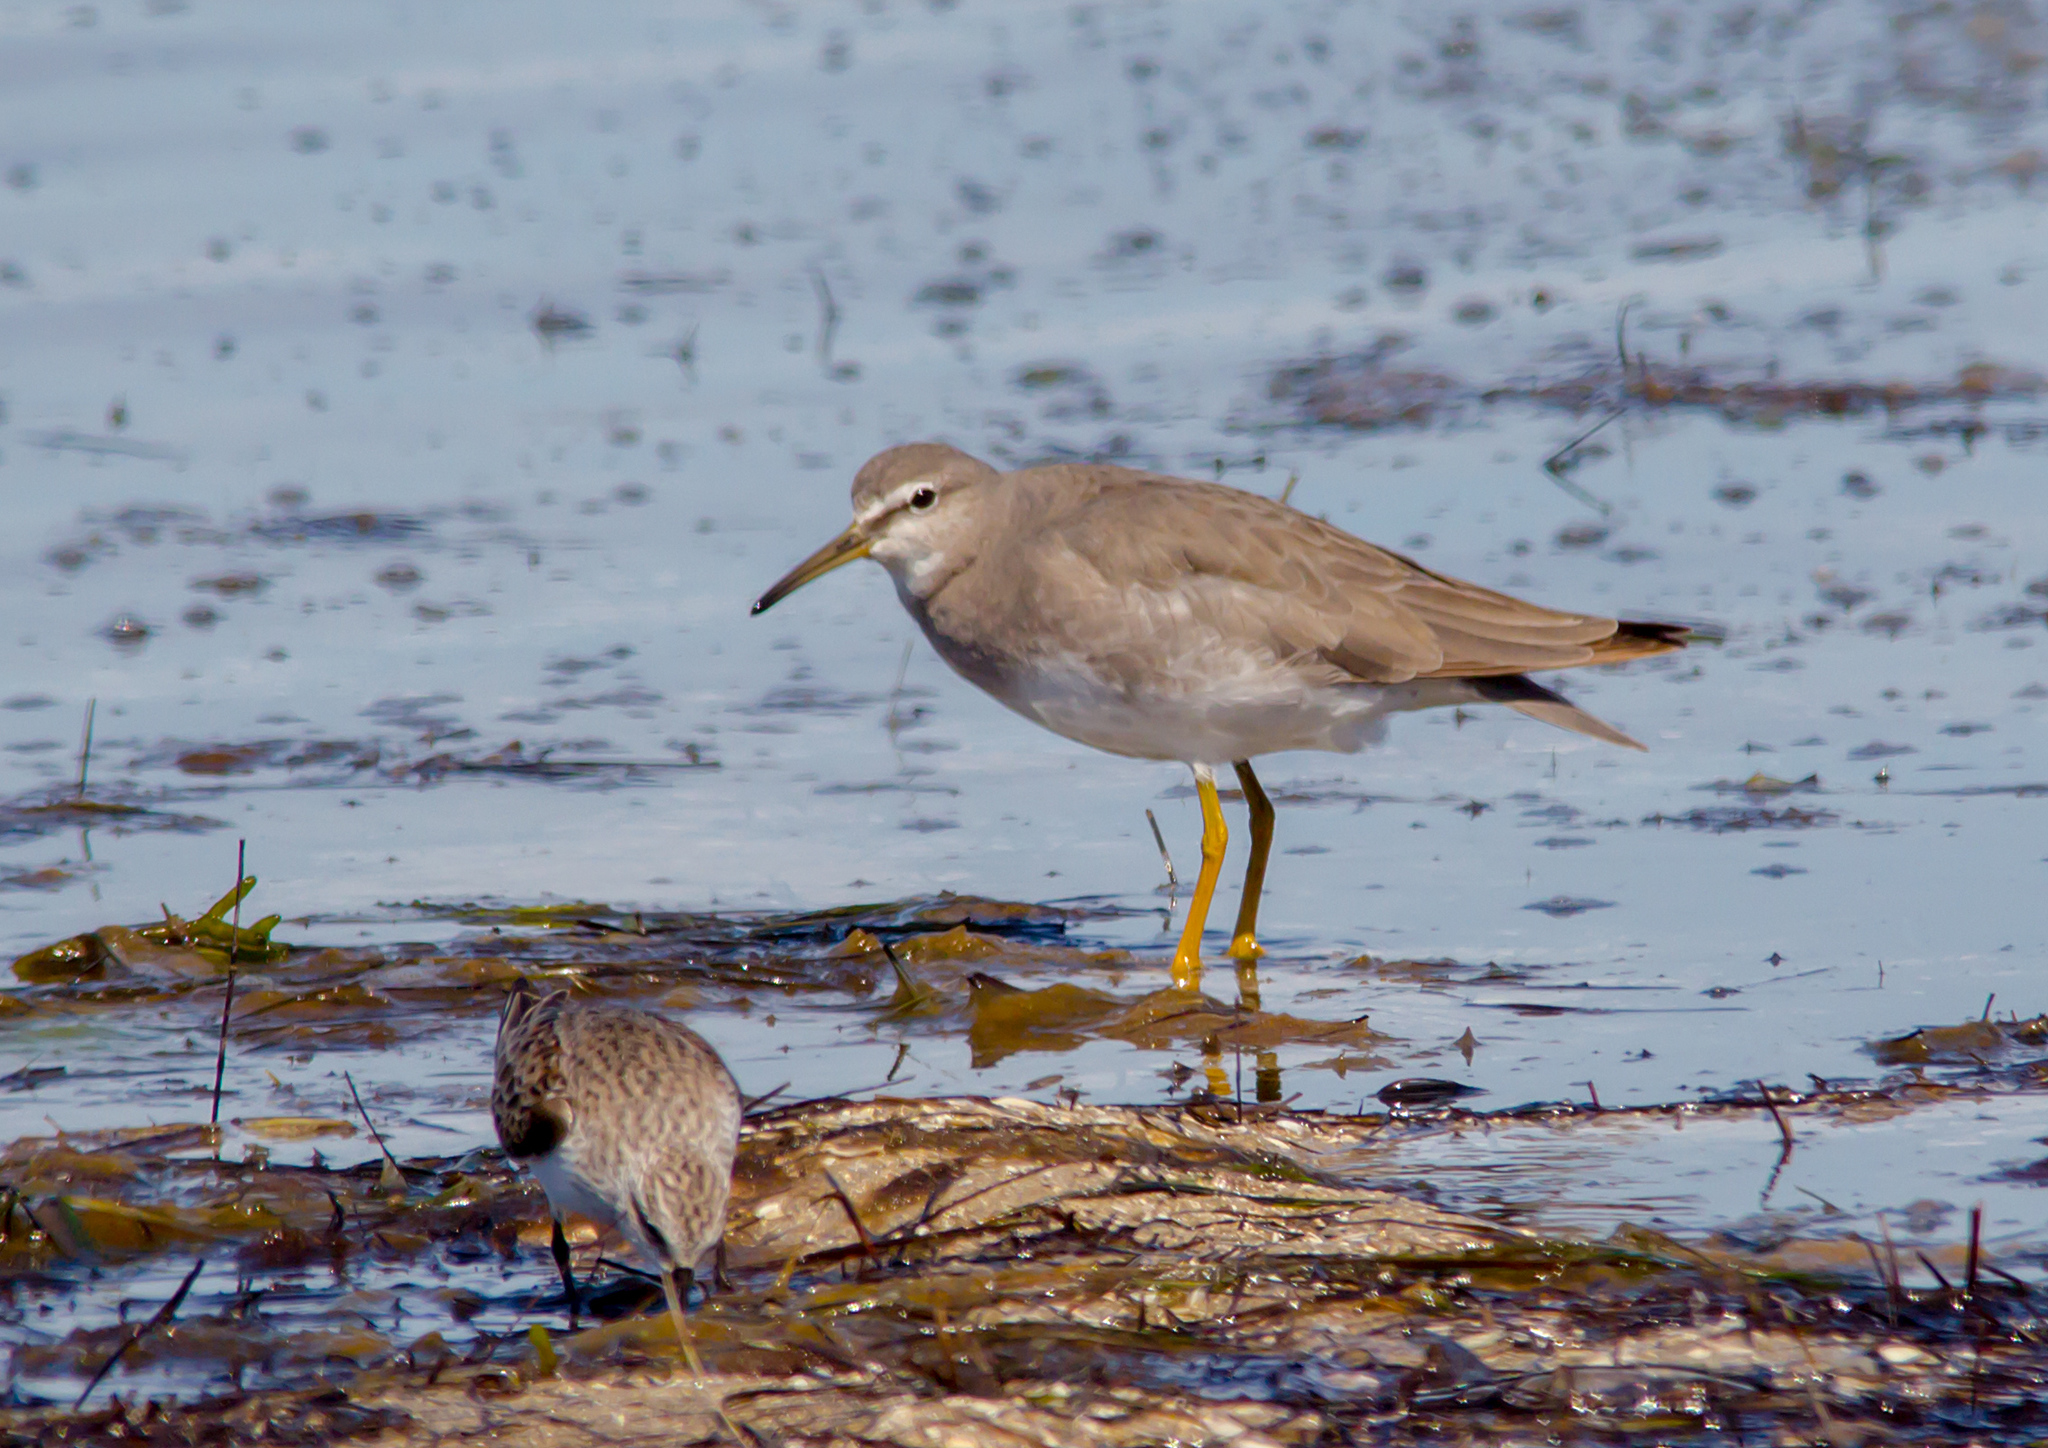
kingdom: Animalia
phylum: Chordata
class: Aves
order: Charadriiformes
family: Scolopacidae
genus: Tringa
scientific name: Tringa brevipes
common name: Grey-tailed tattler
